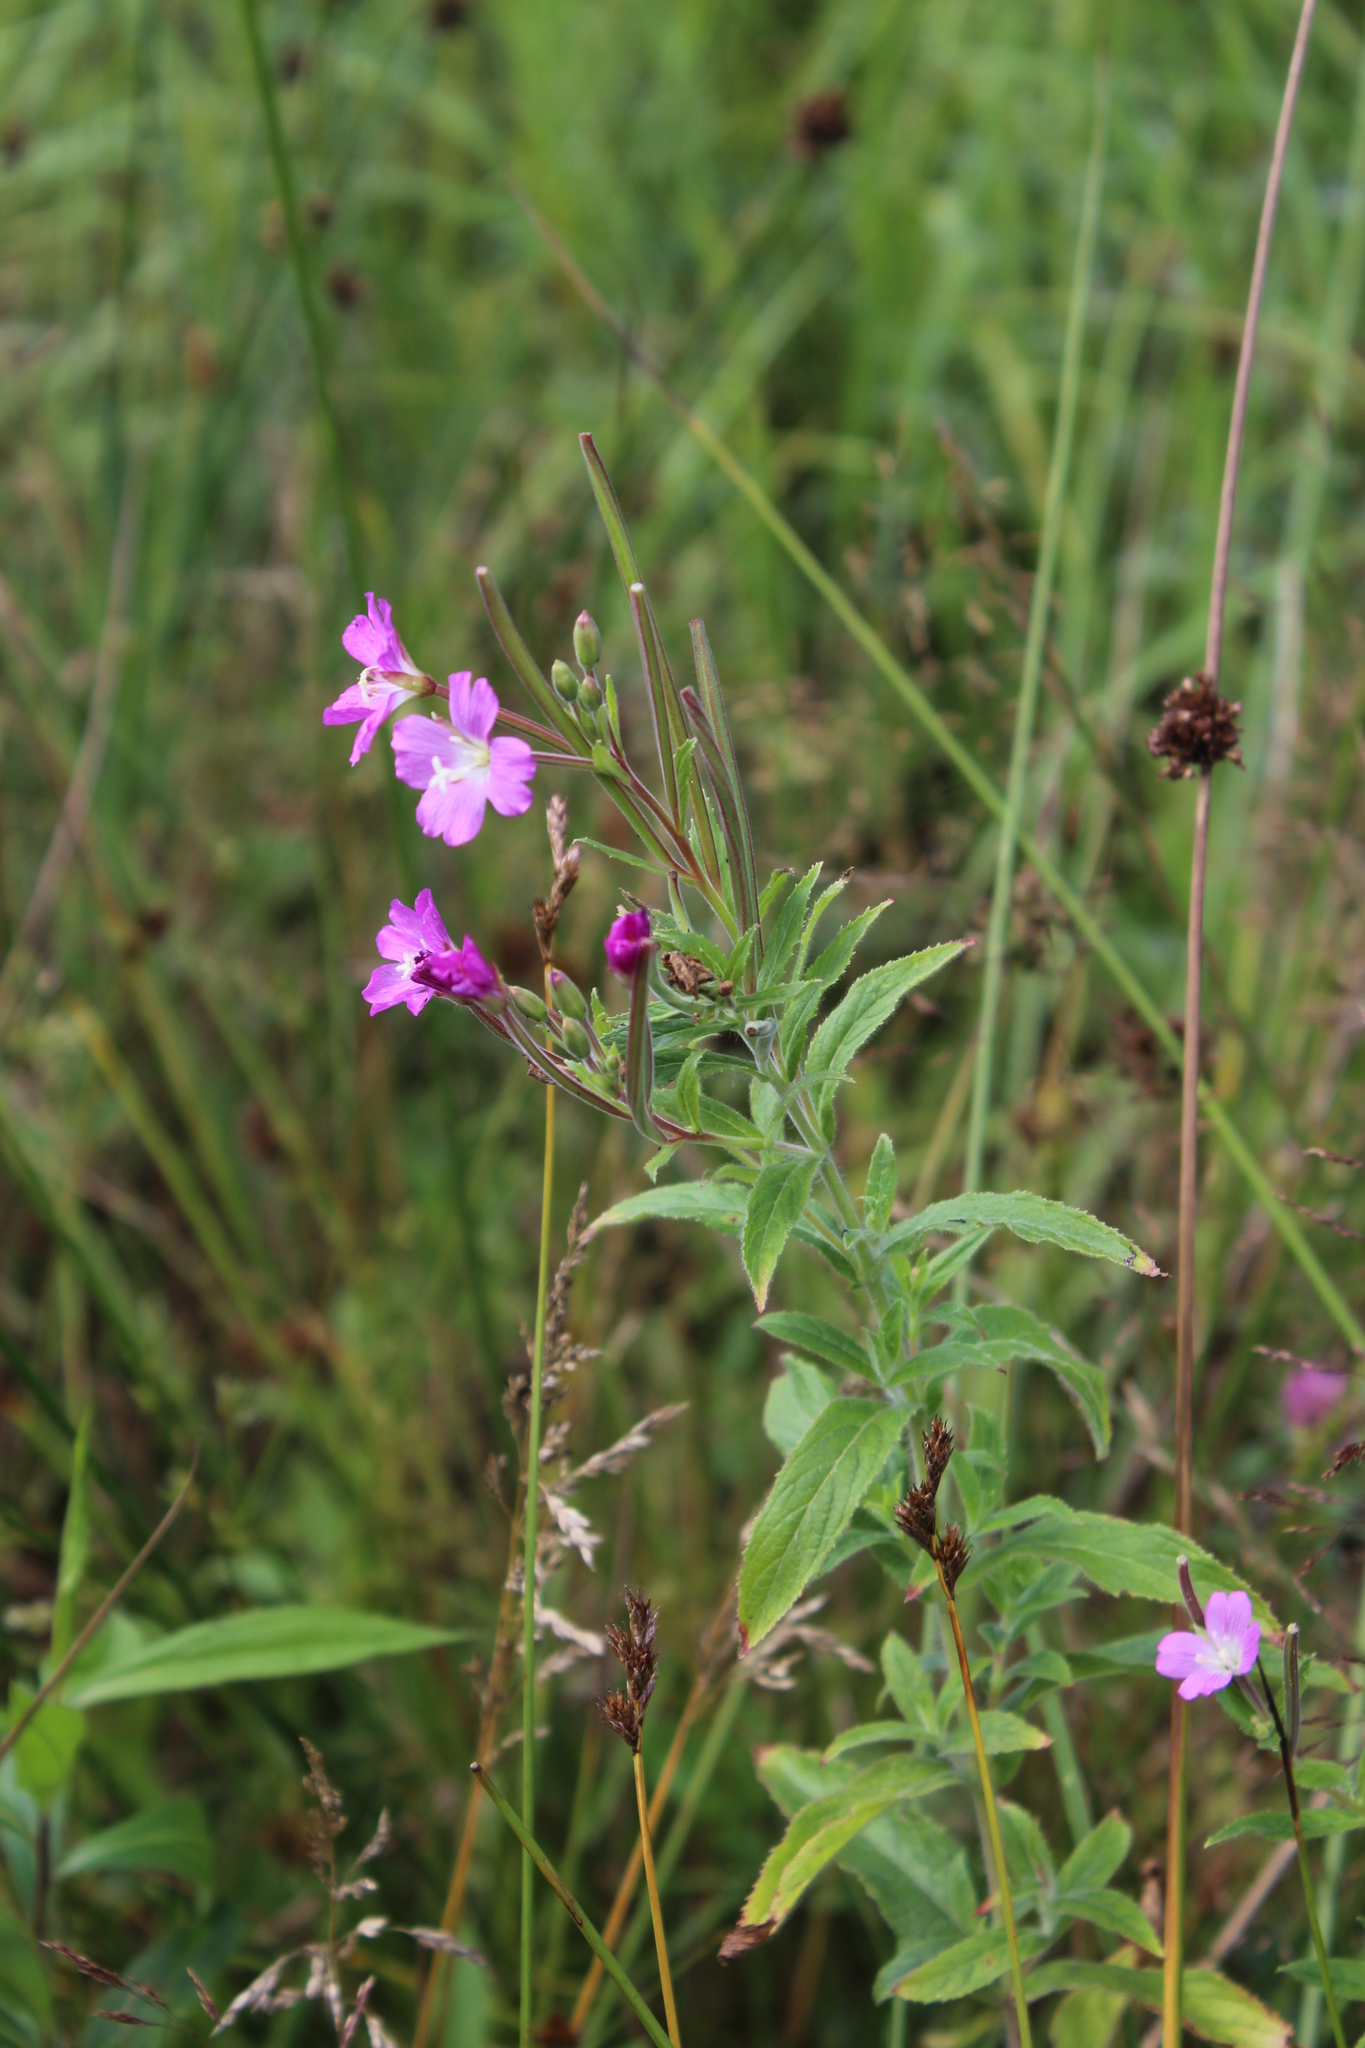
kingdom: Plantae
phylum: Tracheophyta
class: Magnoliopsida
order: Myrtales
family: Onagraceae
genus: Epilobium
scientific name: Epilobium hirsutum
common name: Great willowherb
